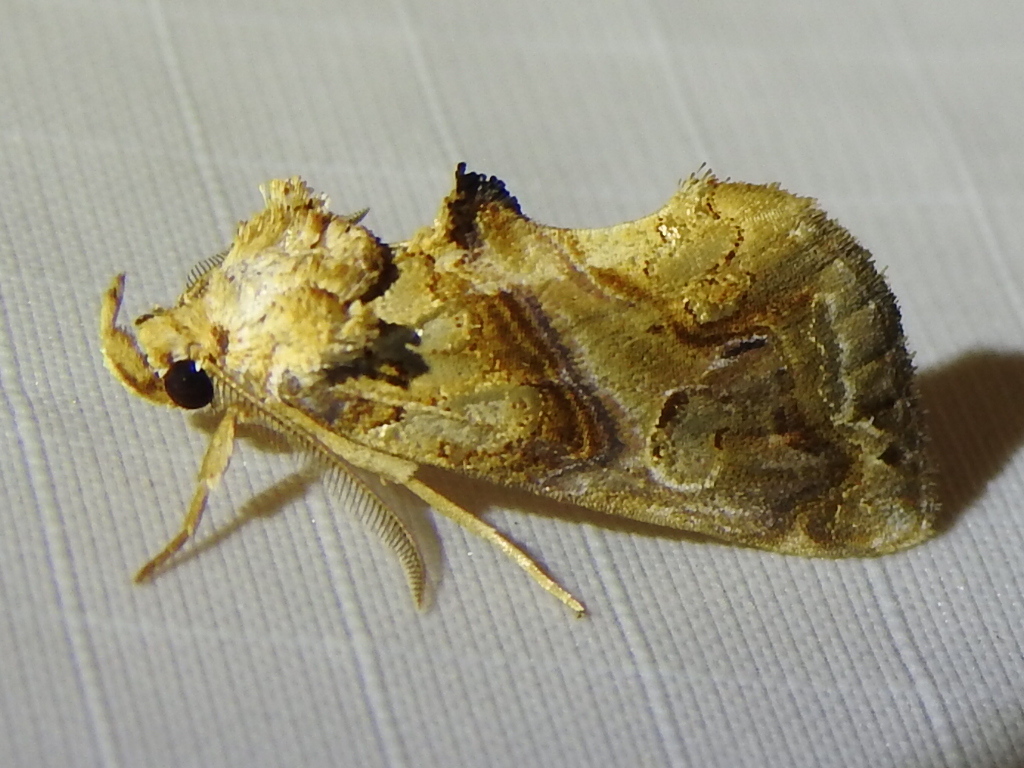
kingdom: Animalia
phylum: Arthropoda
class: Insecta
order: Lepidoptera
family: Erebidae
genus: Plusiodonta
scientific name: Plusiodonta compressipalpis
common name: Moonseed moth
